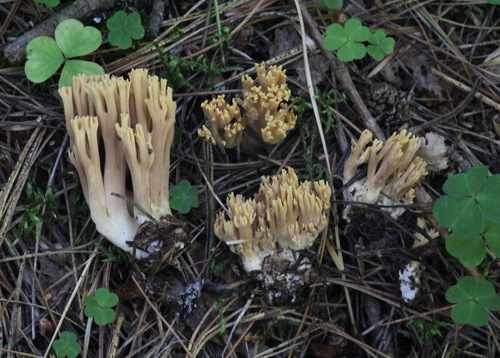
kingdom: Fungi
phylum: Basidiomycota
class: Agaricomycetes
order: Gomphales
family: Gomphaceae
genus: Ramaria
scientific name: Ramaria
